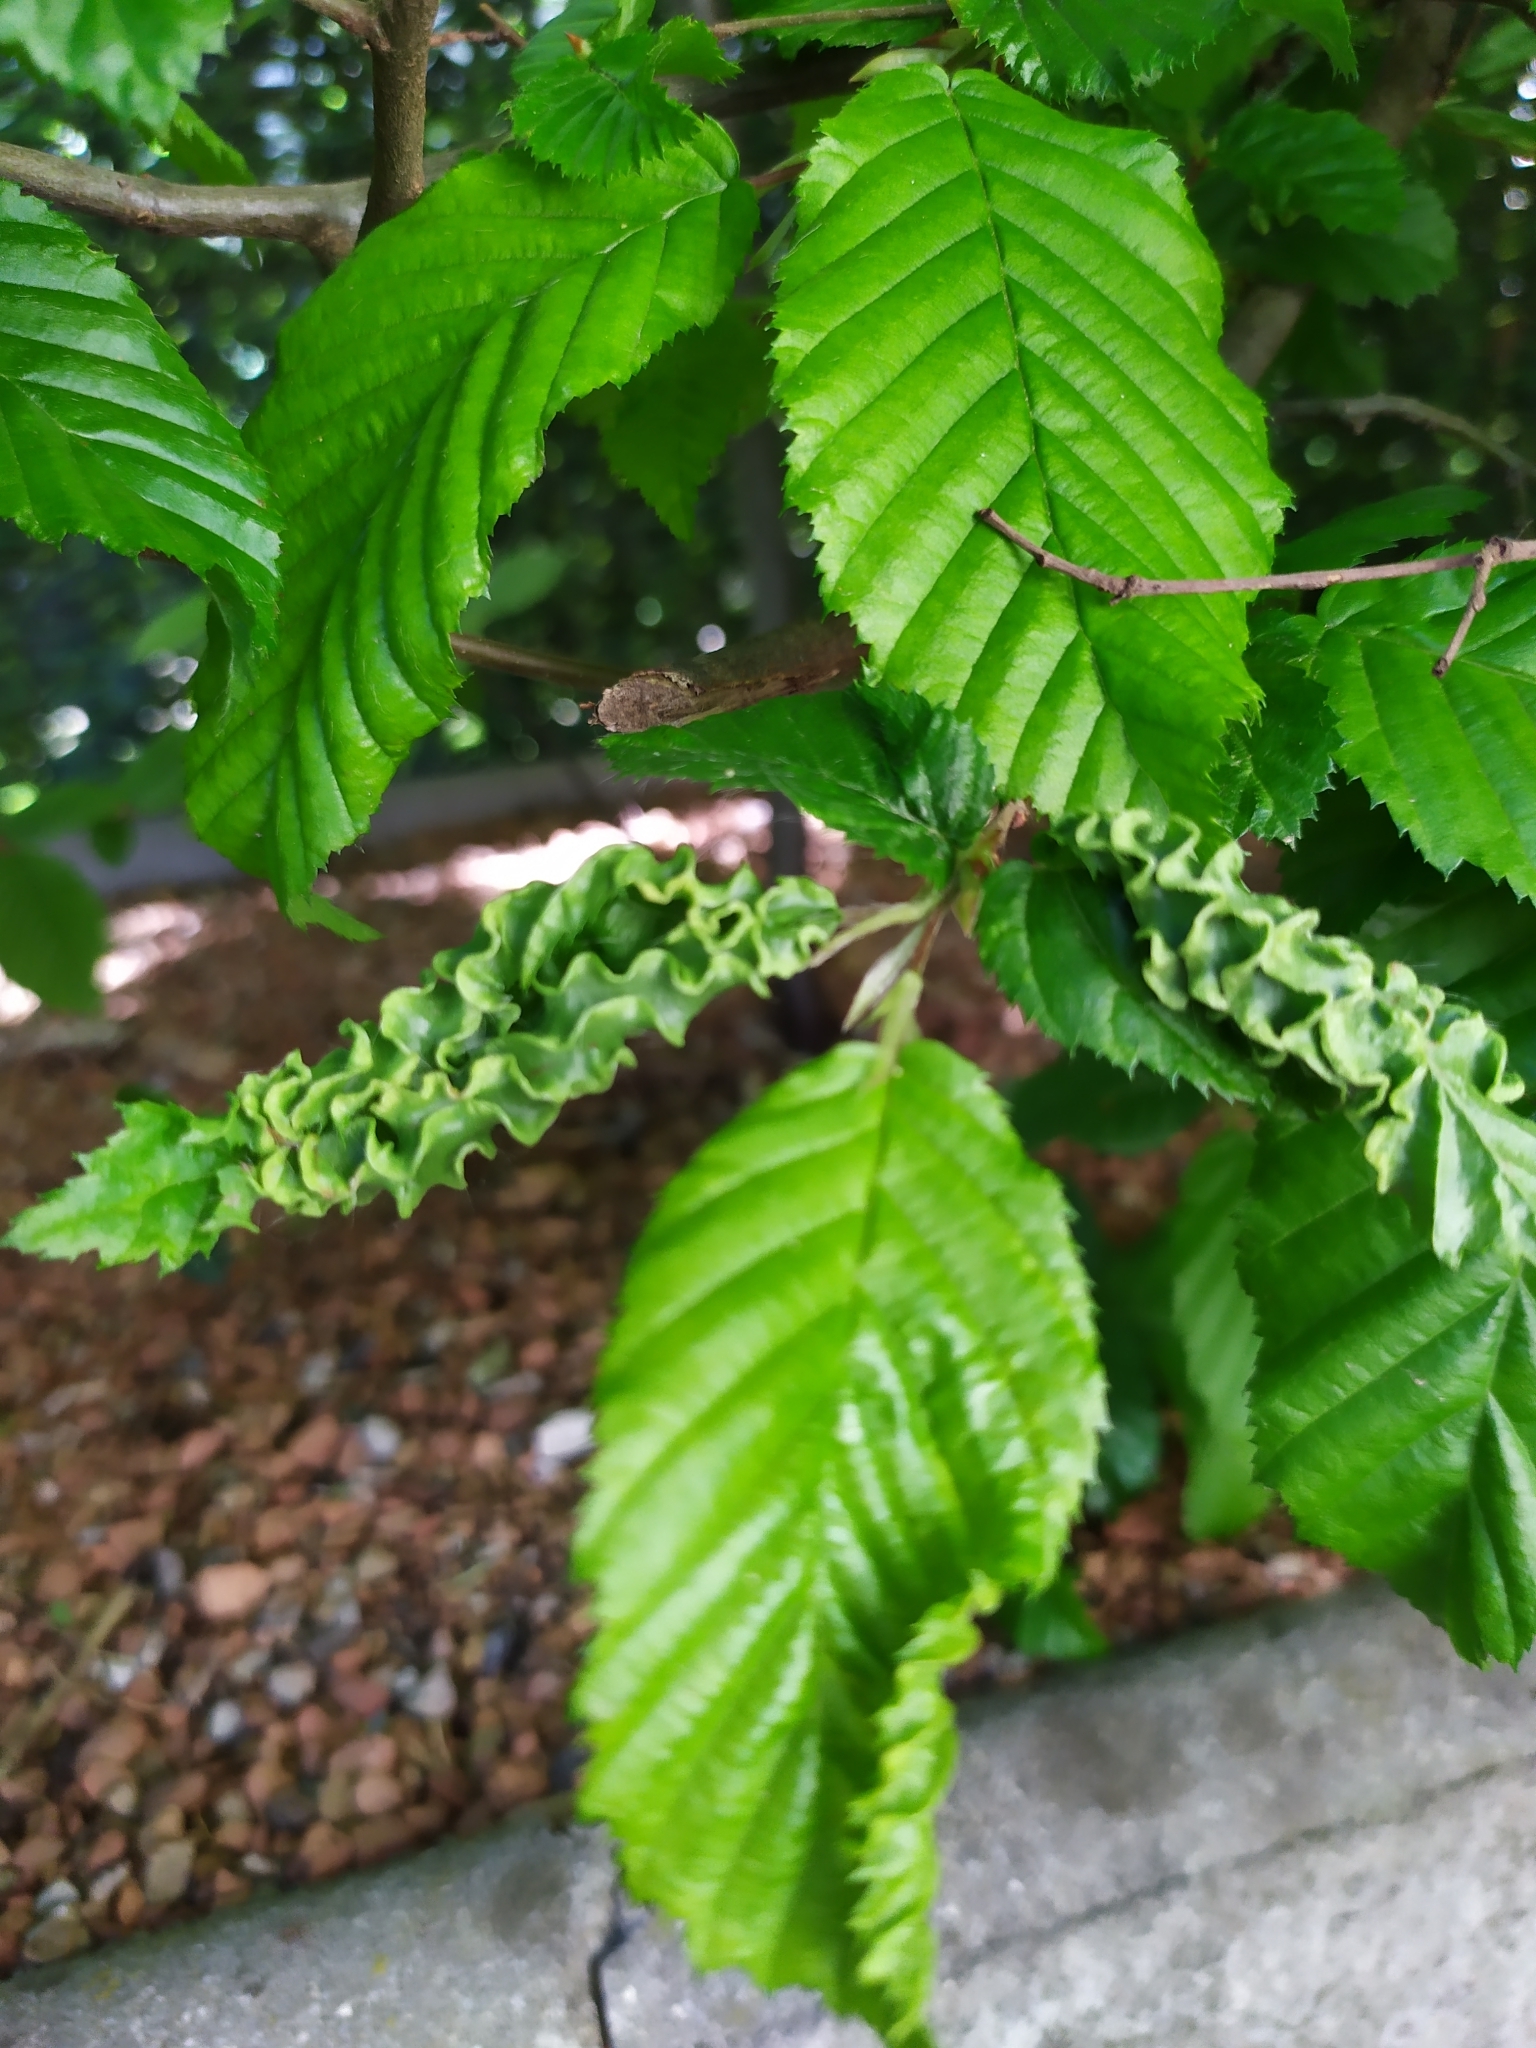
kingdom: Animalia
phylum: Arthropoda
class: Arachnida
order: Trombidiformes
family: Eriophyidae
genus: Aculops
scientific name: Aculops macrotrichus
